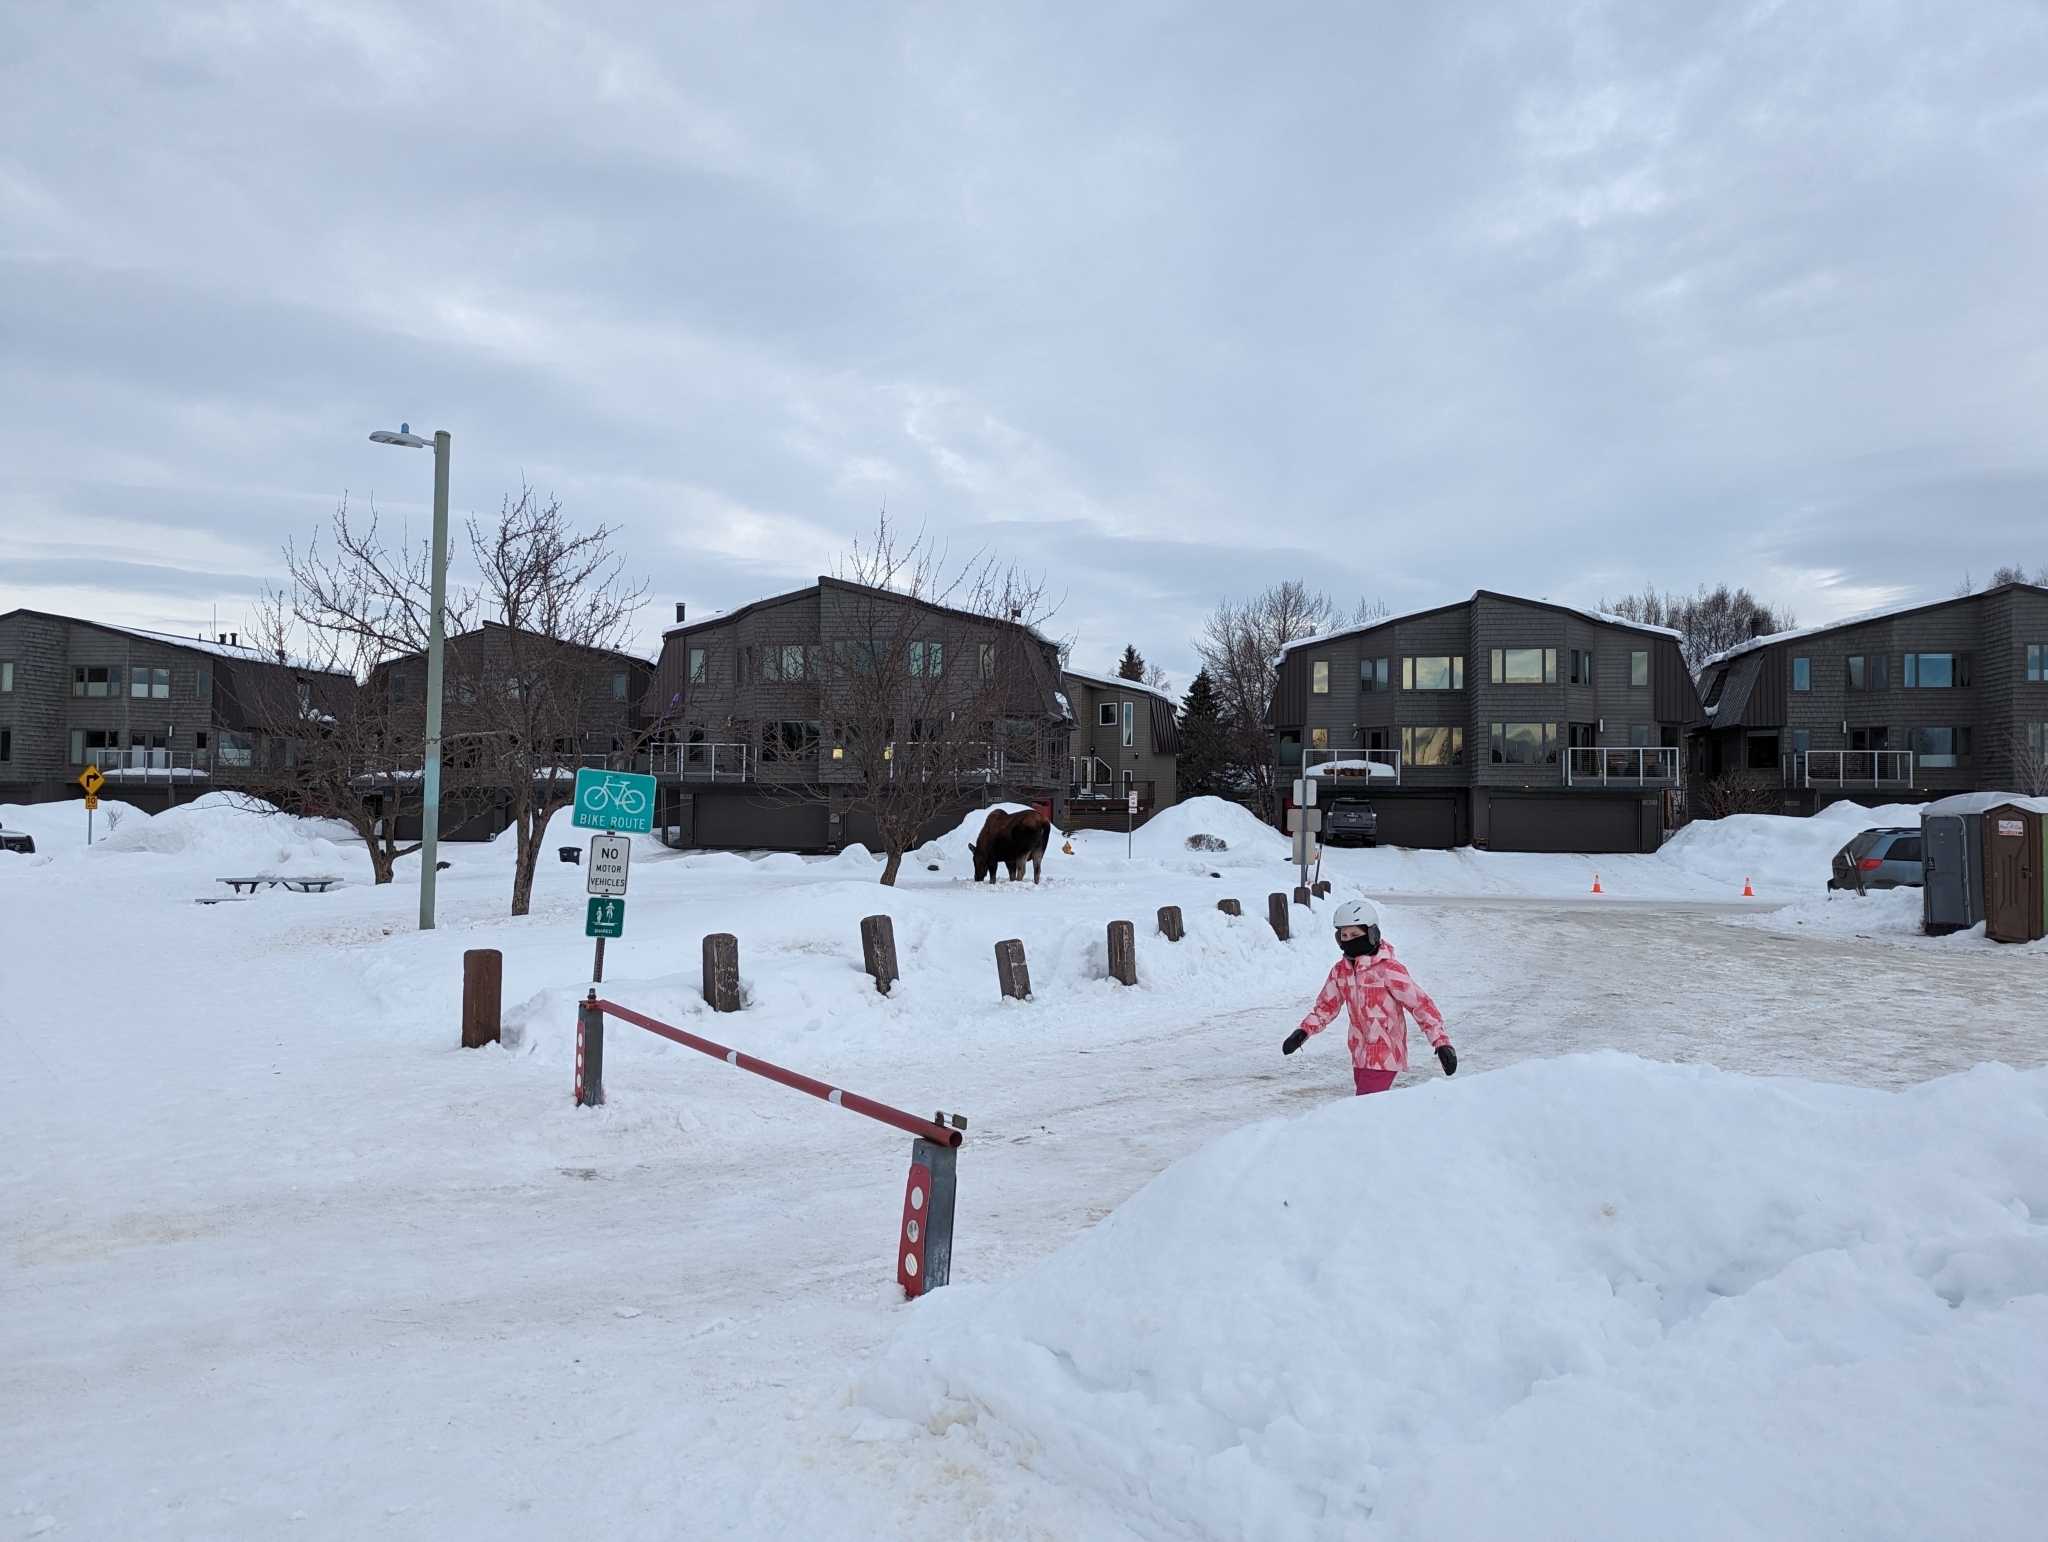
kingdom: Animalia
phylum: Chordata
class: Mammalia
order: Artiodactyla
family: Cervidae
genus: Alces
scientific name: Alces alces
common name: Moose
